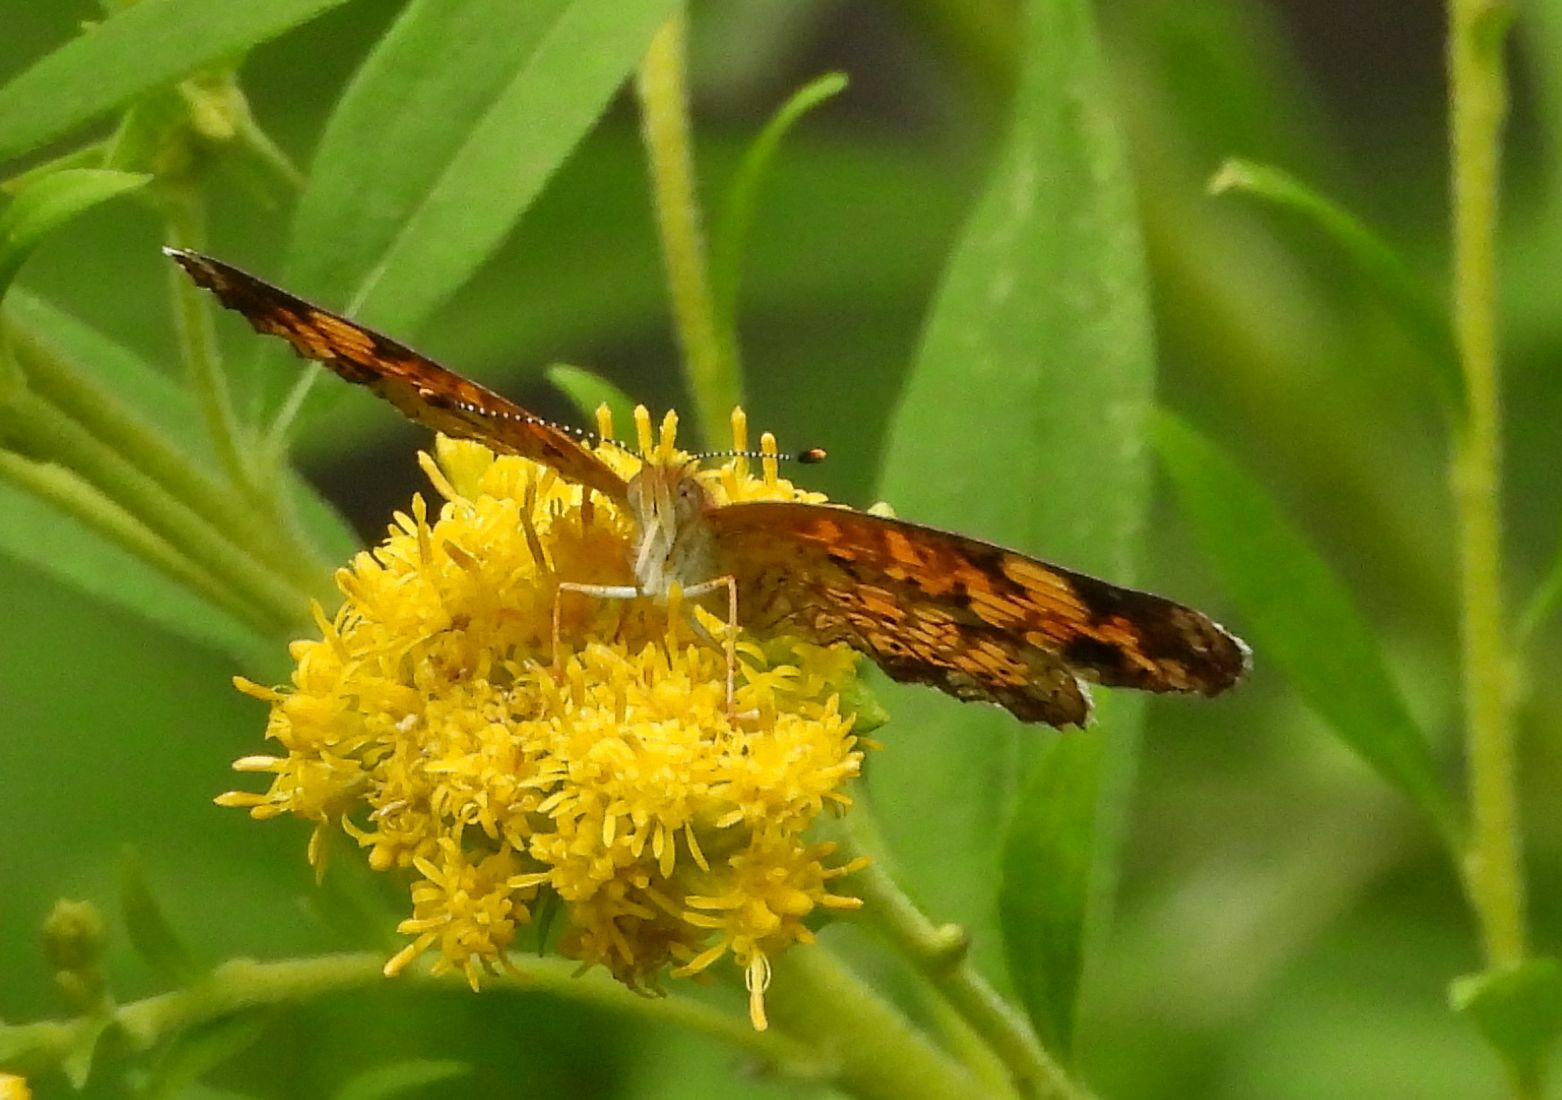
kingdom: Animalia
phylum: Arthropoda
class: Insecta
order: Lepidoptera
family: Nymphalidae
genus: Phyciodes
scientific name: Phyciodes tharos
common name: Pearl crescent
